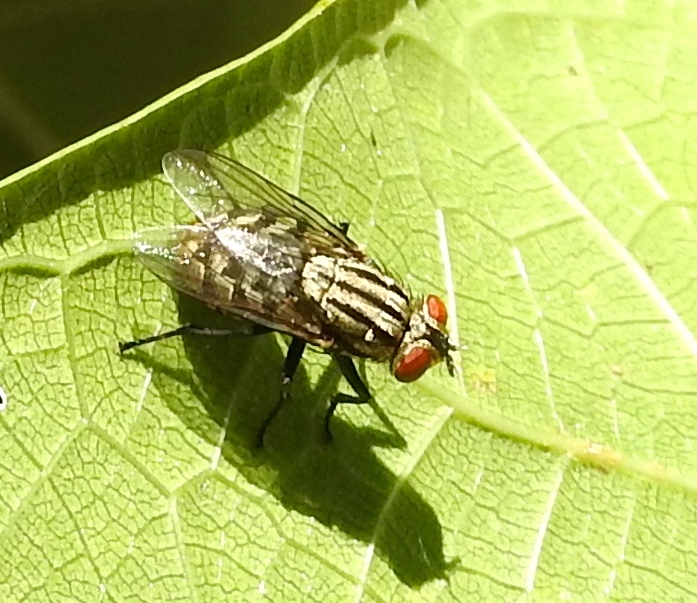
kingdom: Animalia
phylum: Arthropoda
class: Insecta
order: Diptera
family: Sarcophagidae
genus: Sarcophaga
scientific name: Sarcophaga
